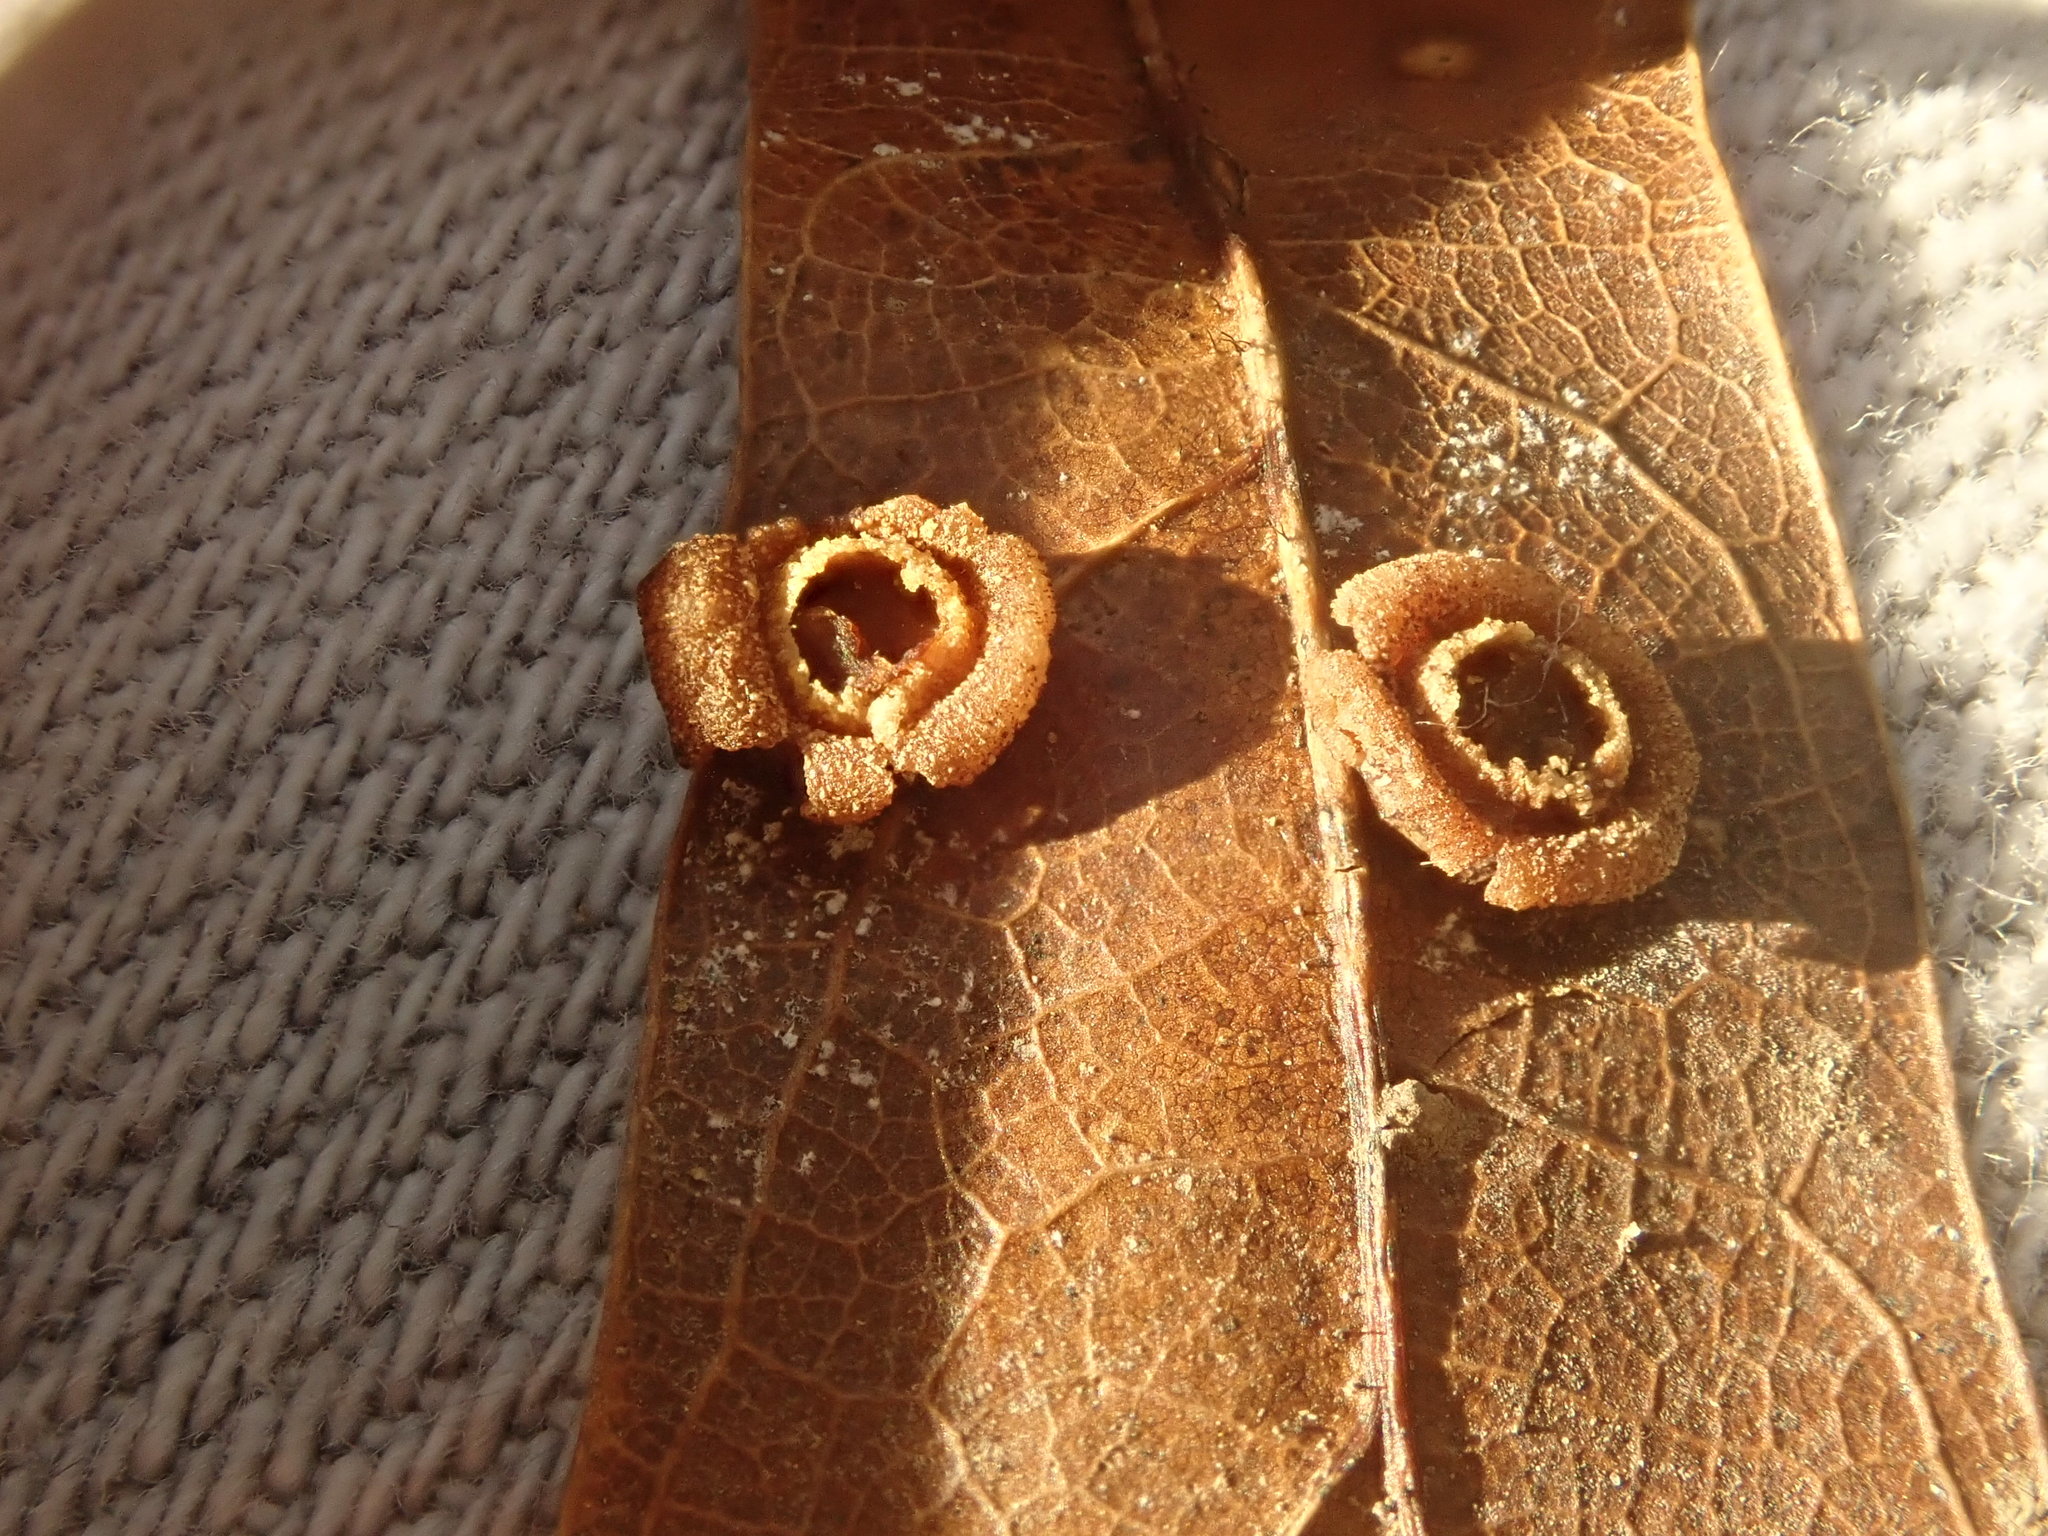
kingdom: Animalia
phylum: Arthropoda
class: Insecta
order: Diptera
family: Cecidomyiidae
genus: Polystepha
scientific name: Polystepha globosa
